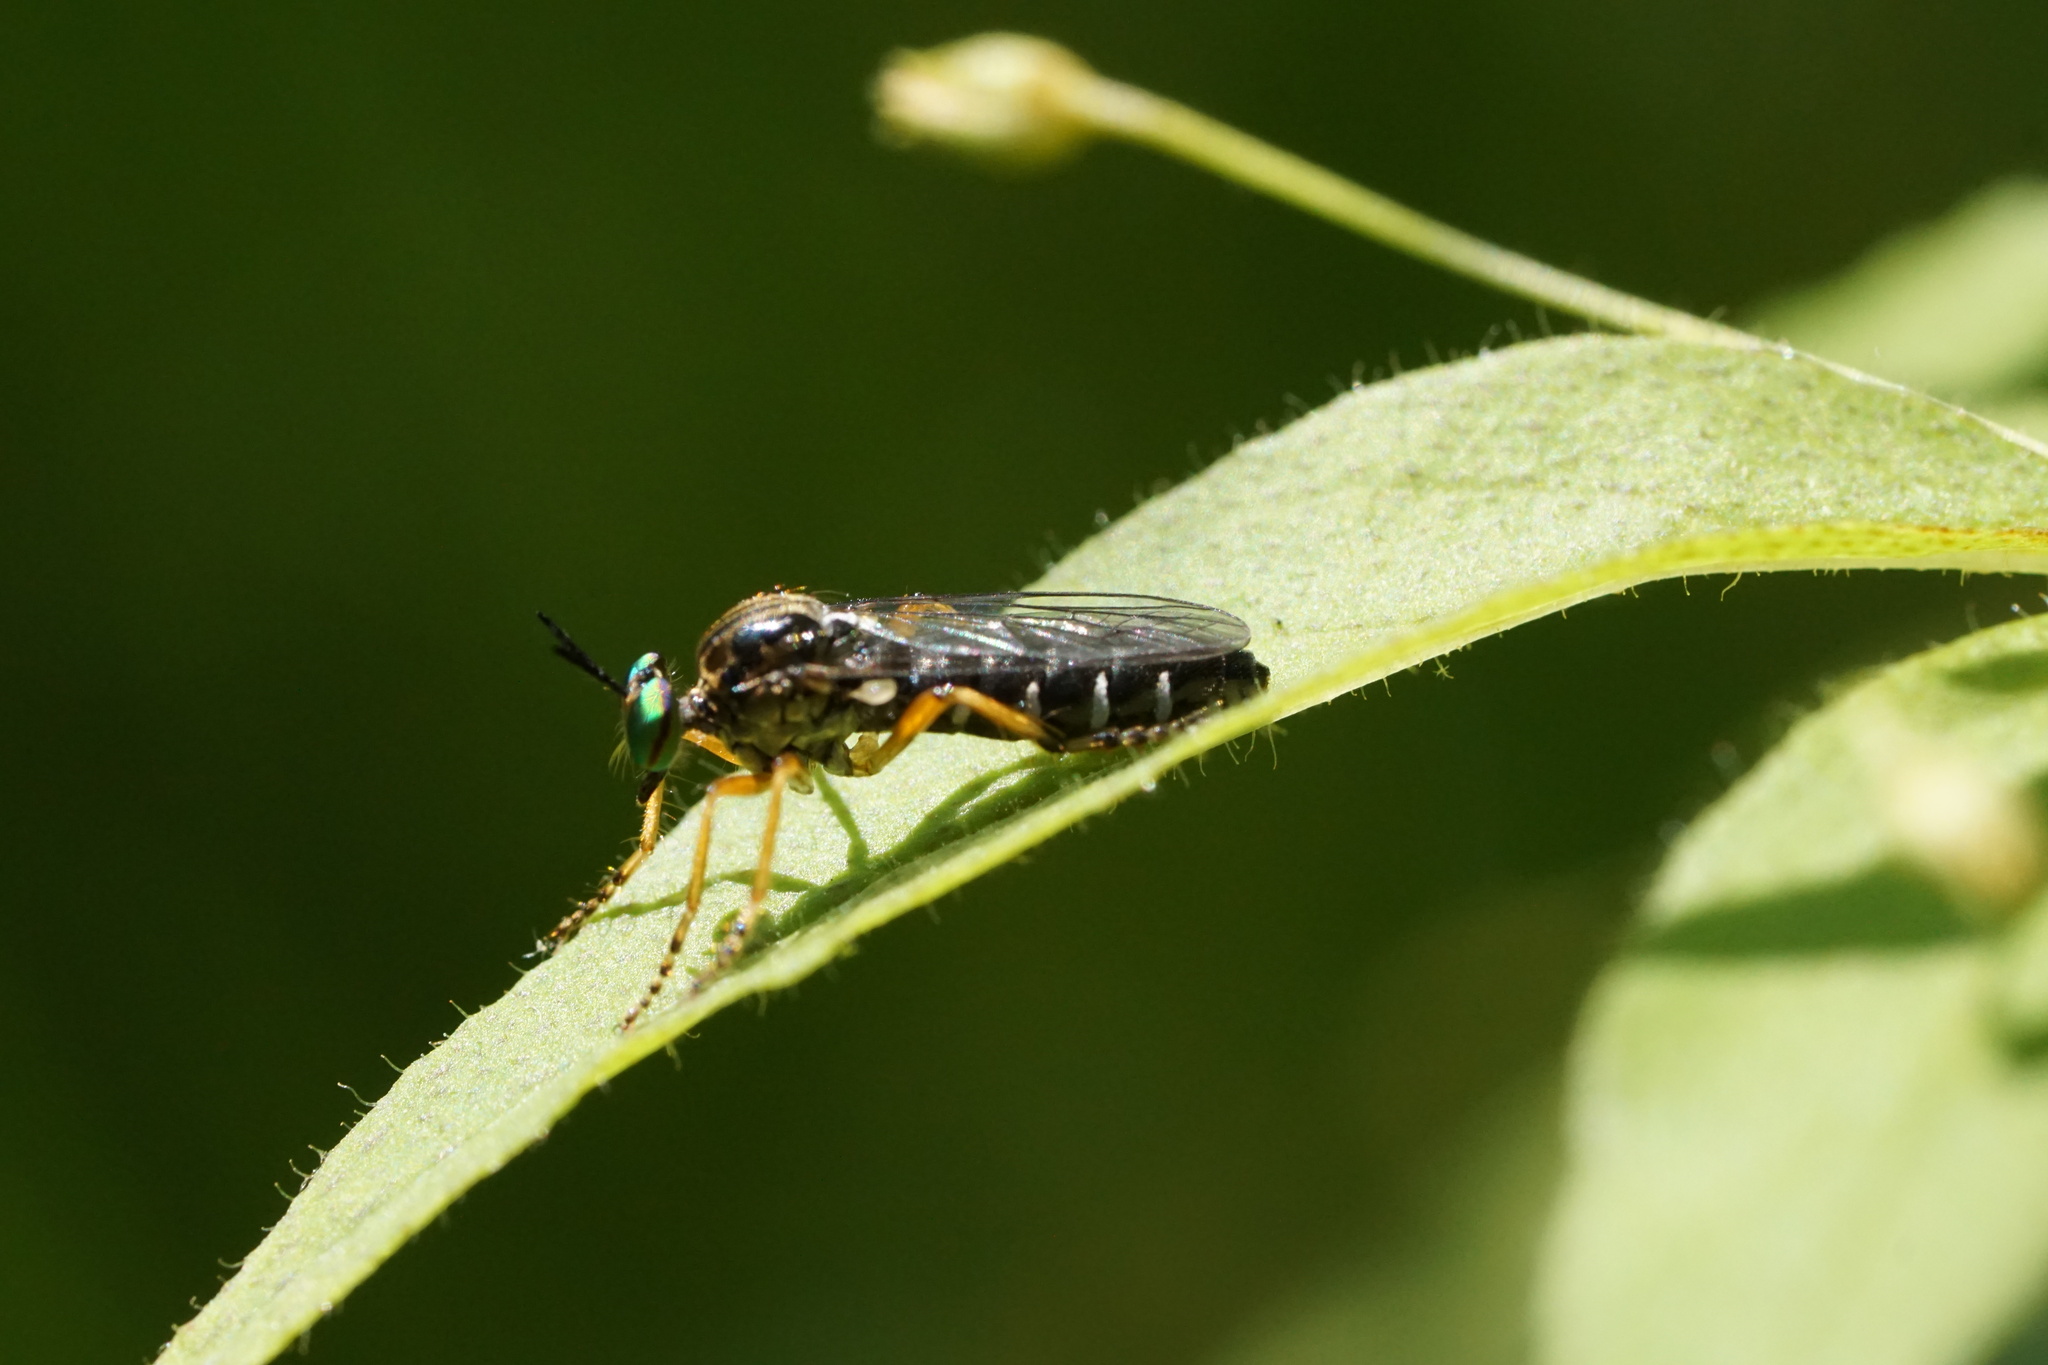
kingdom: Animalia
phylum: Arthropoda
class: Insecta
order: Diptera
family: Asilidae
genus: Taracticus
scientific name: Taracticus octopunctatus
